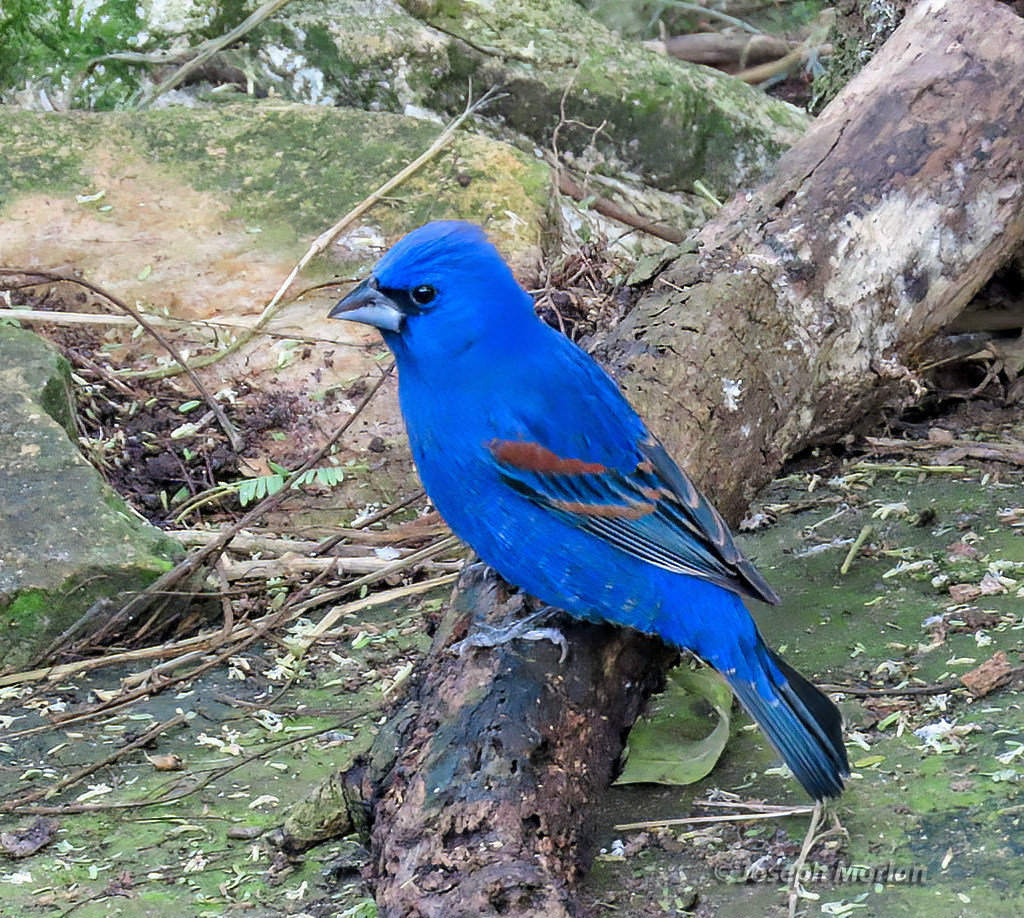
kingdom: Animalia
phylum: Chordata
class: Aves
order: Passeriformes
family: Cardinalidae
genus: Passerina
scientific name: Passerina caerulea
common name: Blue grosbeak
